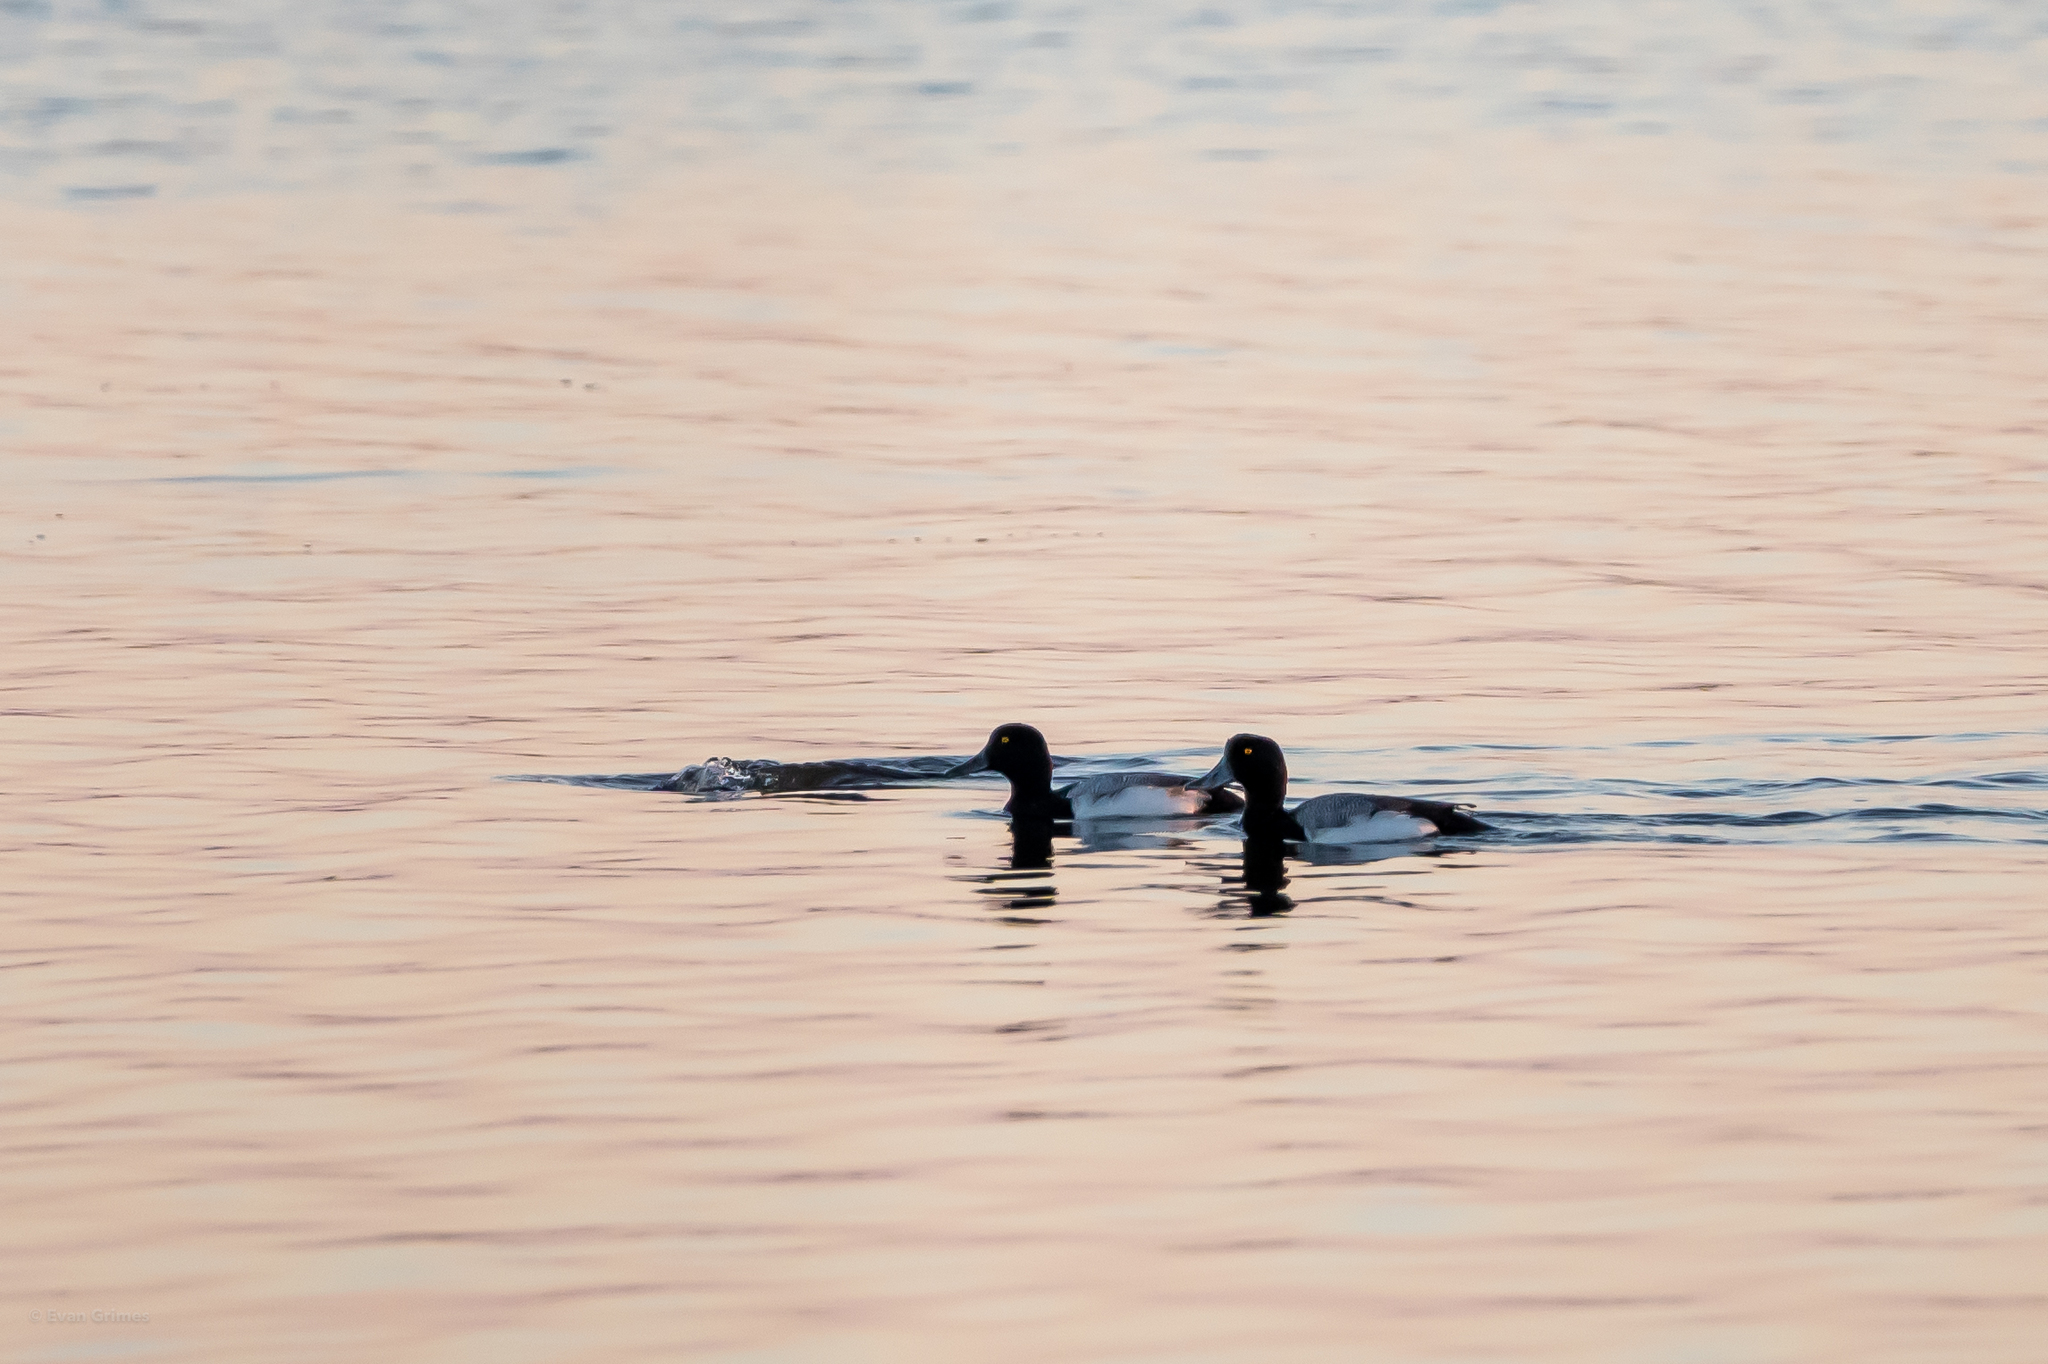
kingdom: Animalia
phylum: Chordata
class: Aves
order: Anseriformes
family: Anatidae
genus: Aythya
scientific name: Aythya marila
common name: Greater scaup
